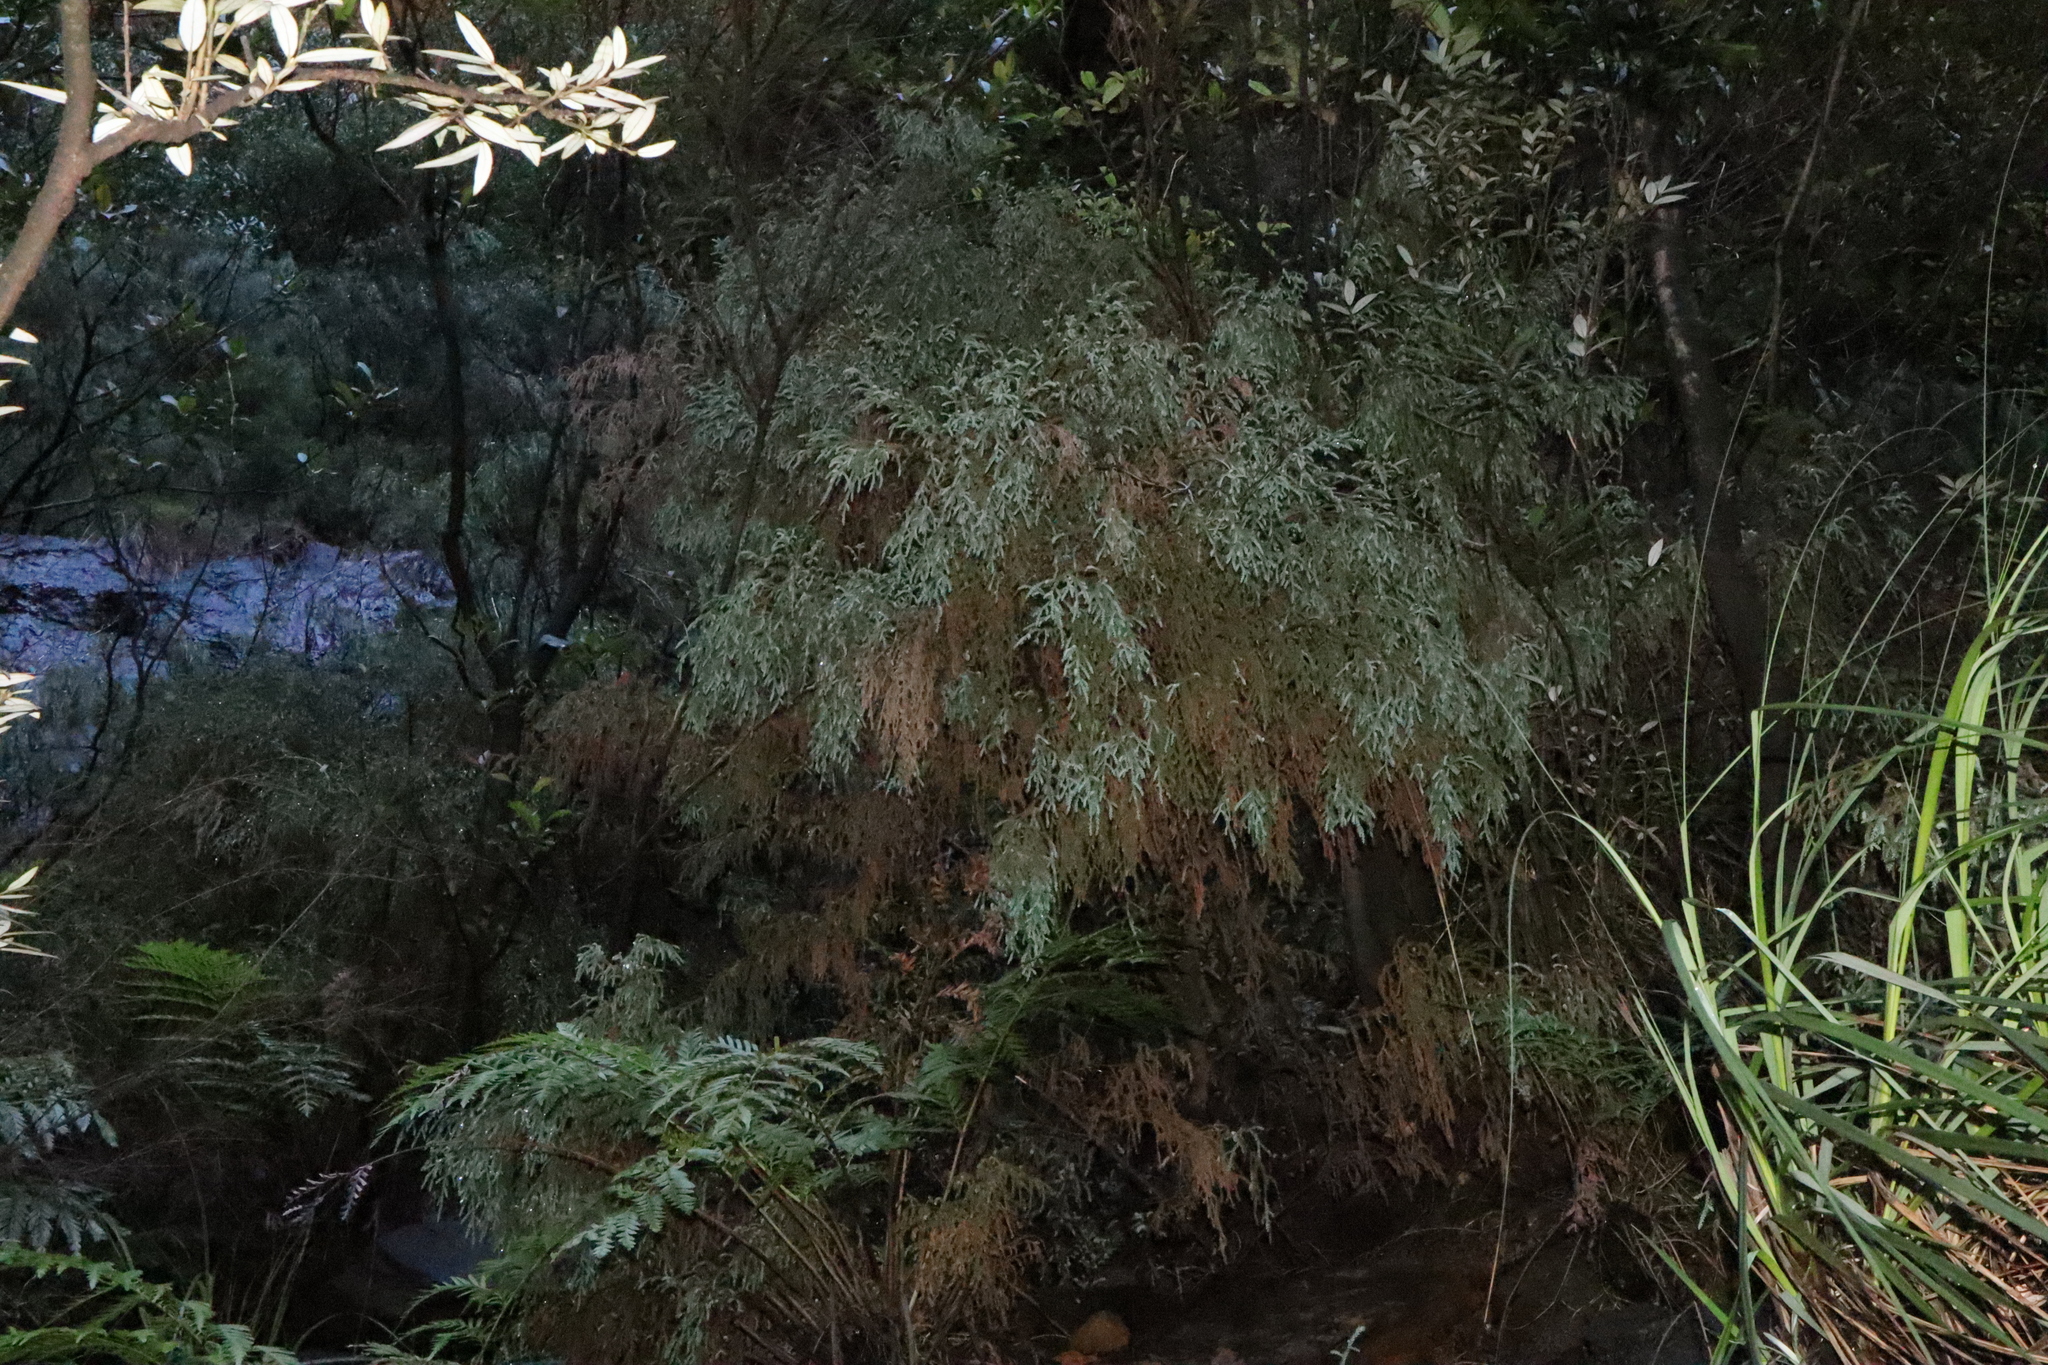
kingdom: Plantae
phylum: Tracheophyta
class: Pinopsida
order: Pinales
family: Podocarpaceae
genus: Pherosphaera
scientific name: Pherosphaera fitzgeraldii
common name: Dwarf mountain pine
